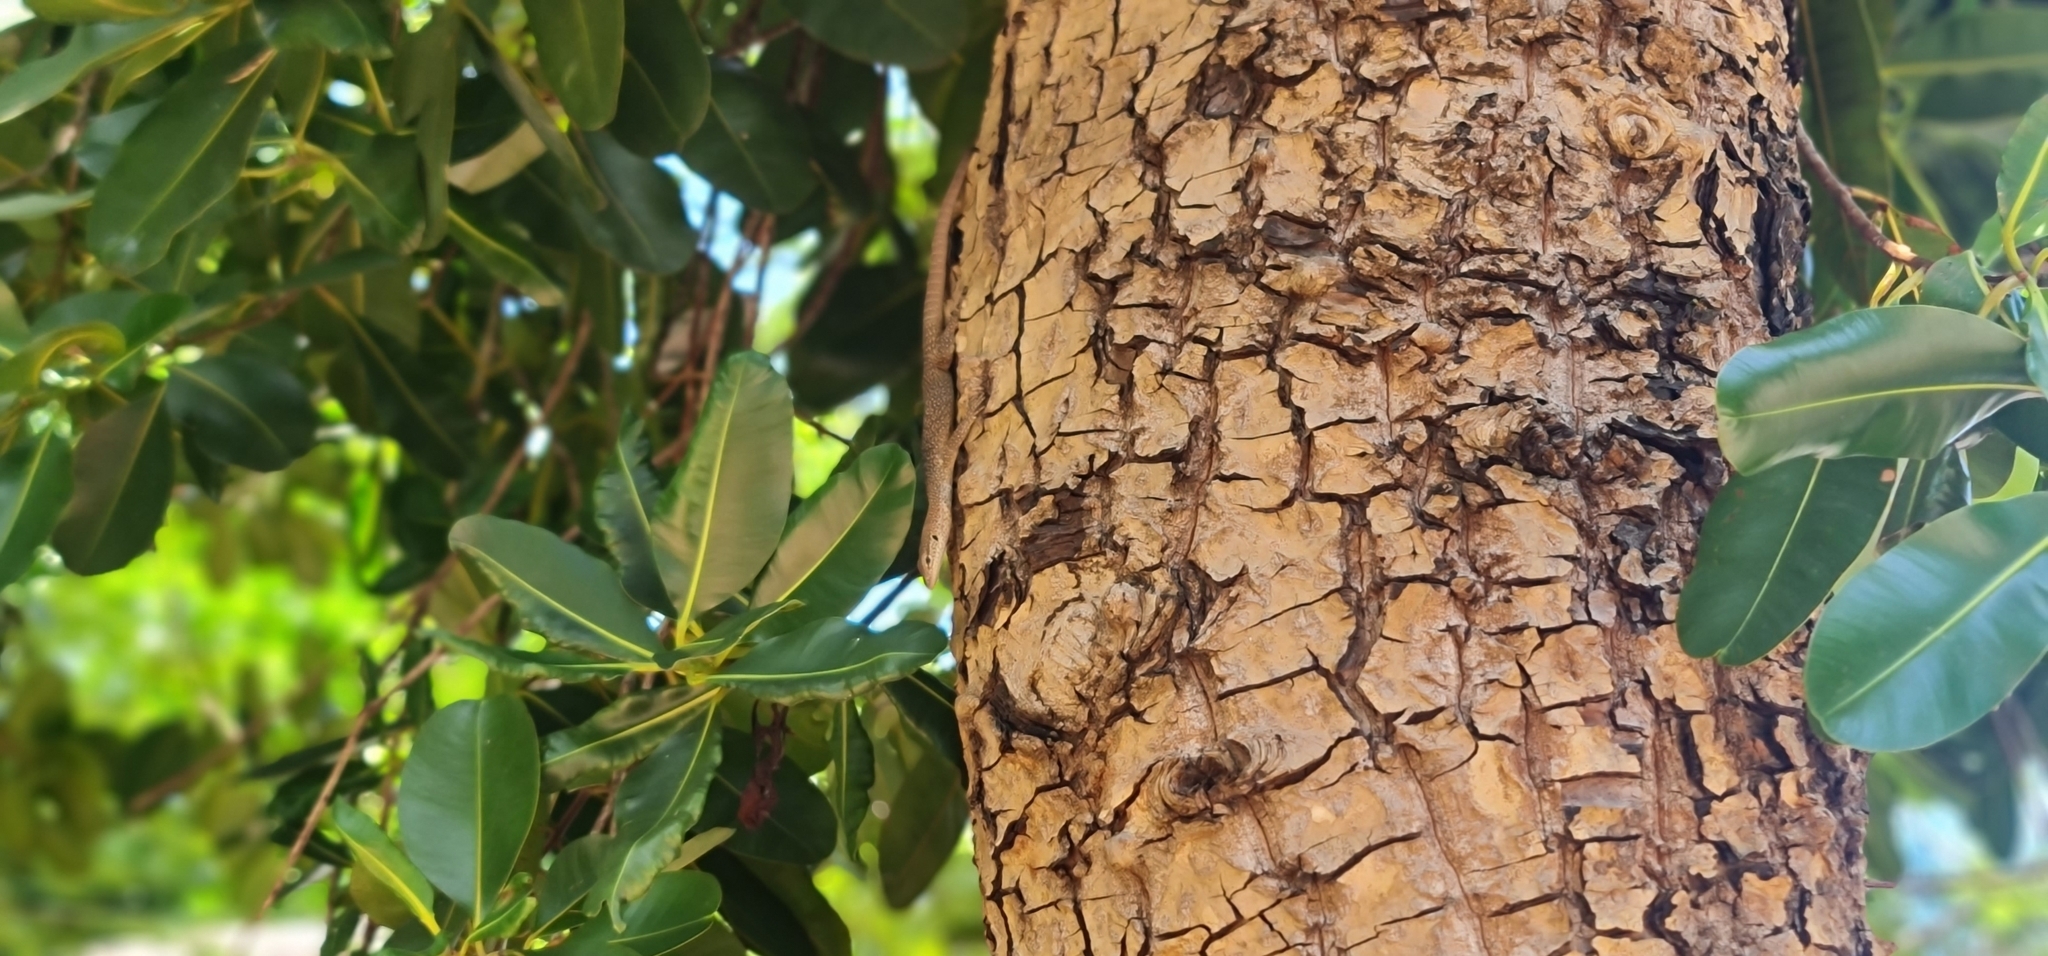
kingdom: Animalia
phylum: Chordata
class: Squamata
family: Varanidae
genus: Varanus
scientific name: Varanus scalaris
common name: Banded tree monitor
